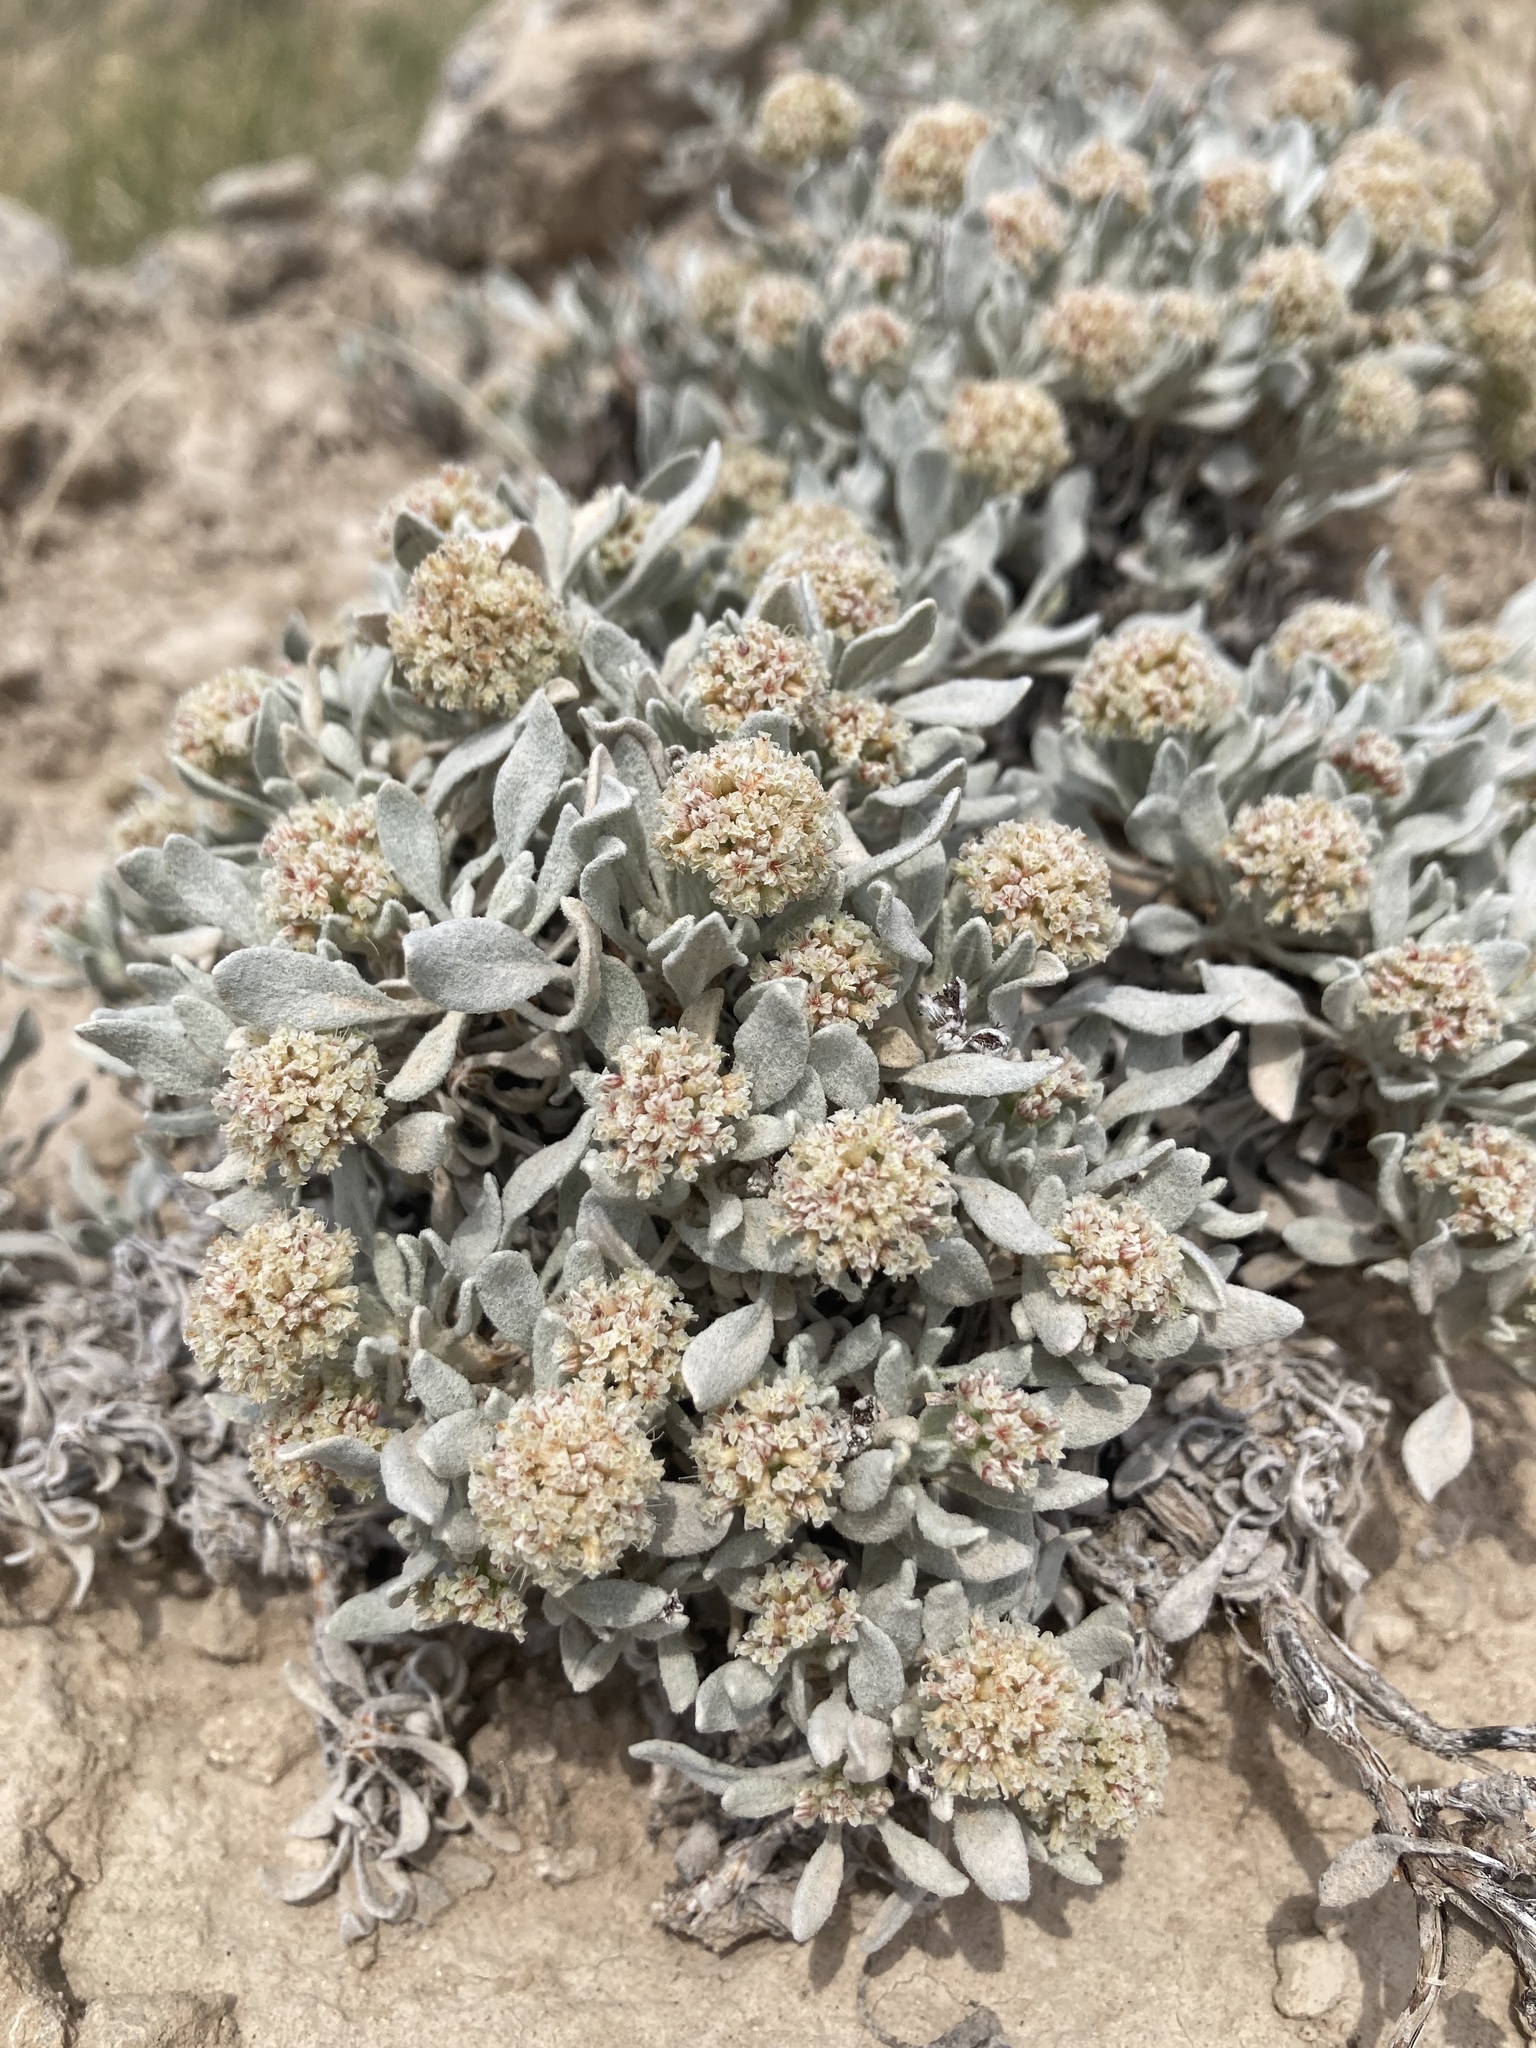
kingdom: Plantae
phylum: Tracheophyta
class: Magnoliopsida
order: Caryophyllales
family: Polygonaceae
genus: Eriogonum
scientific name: Eriogonum pauciflorum
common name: Few-flower wild buckwheat
